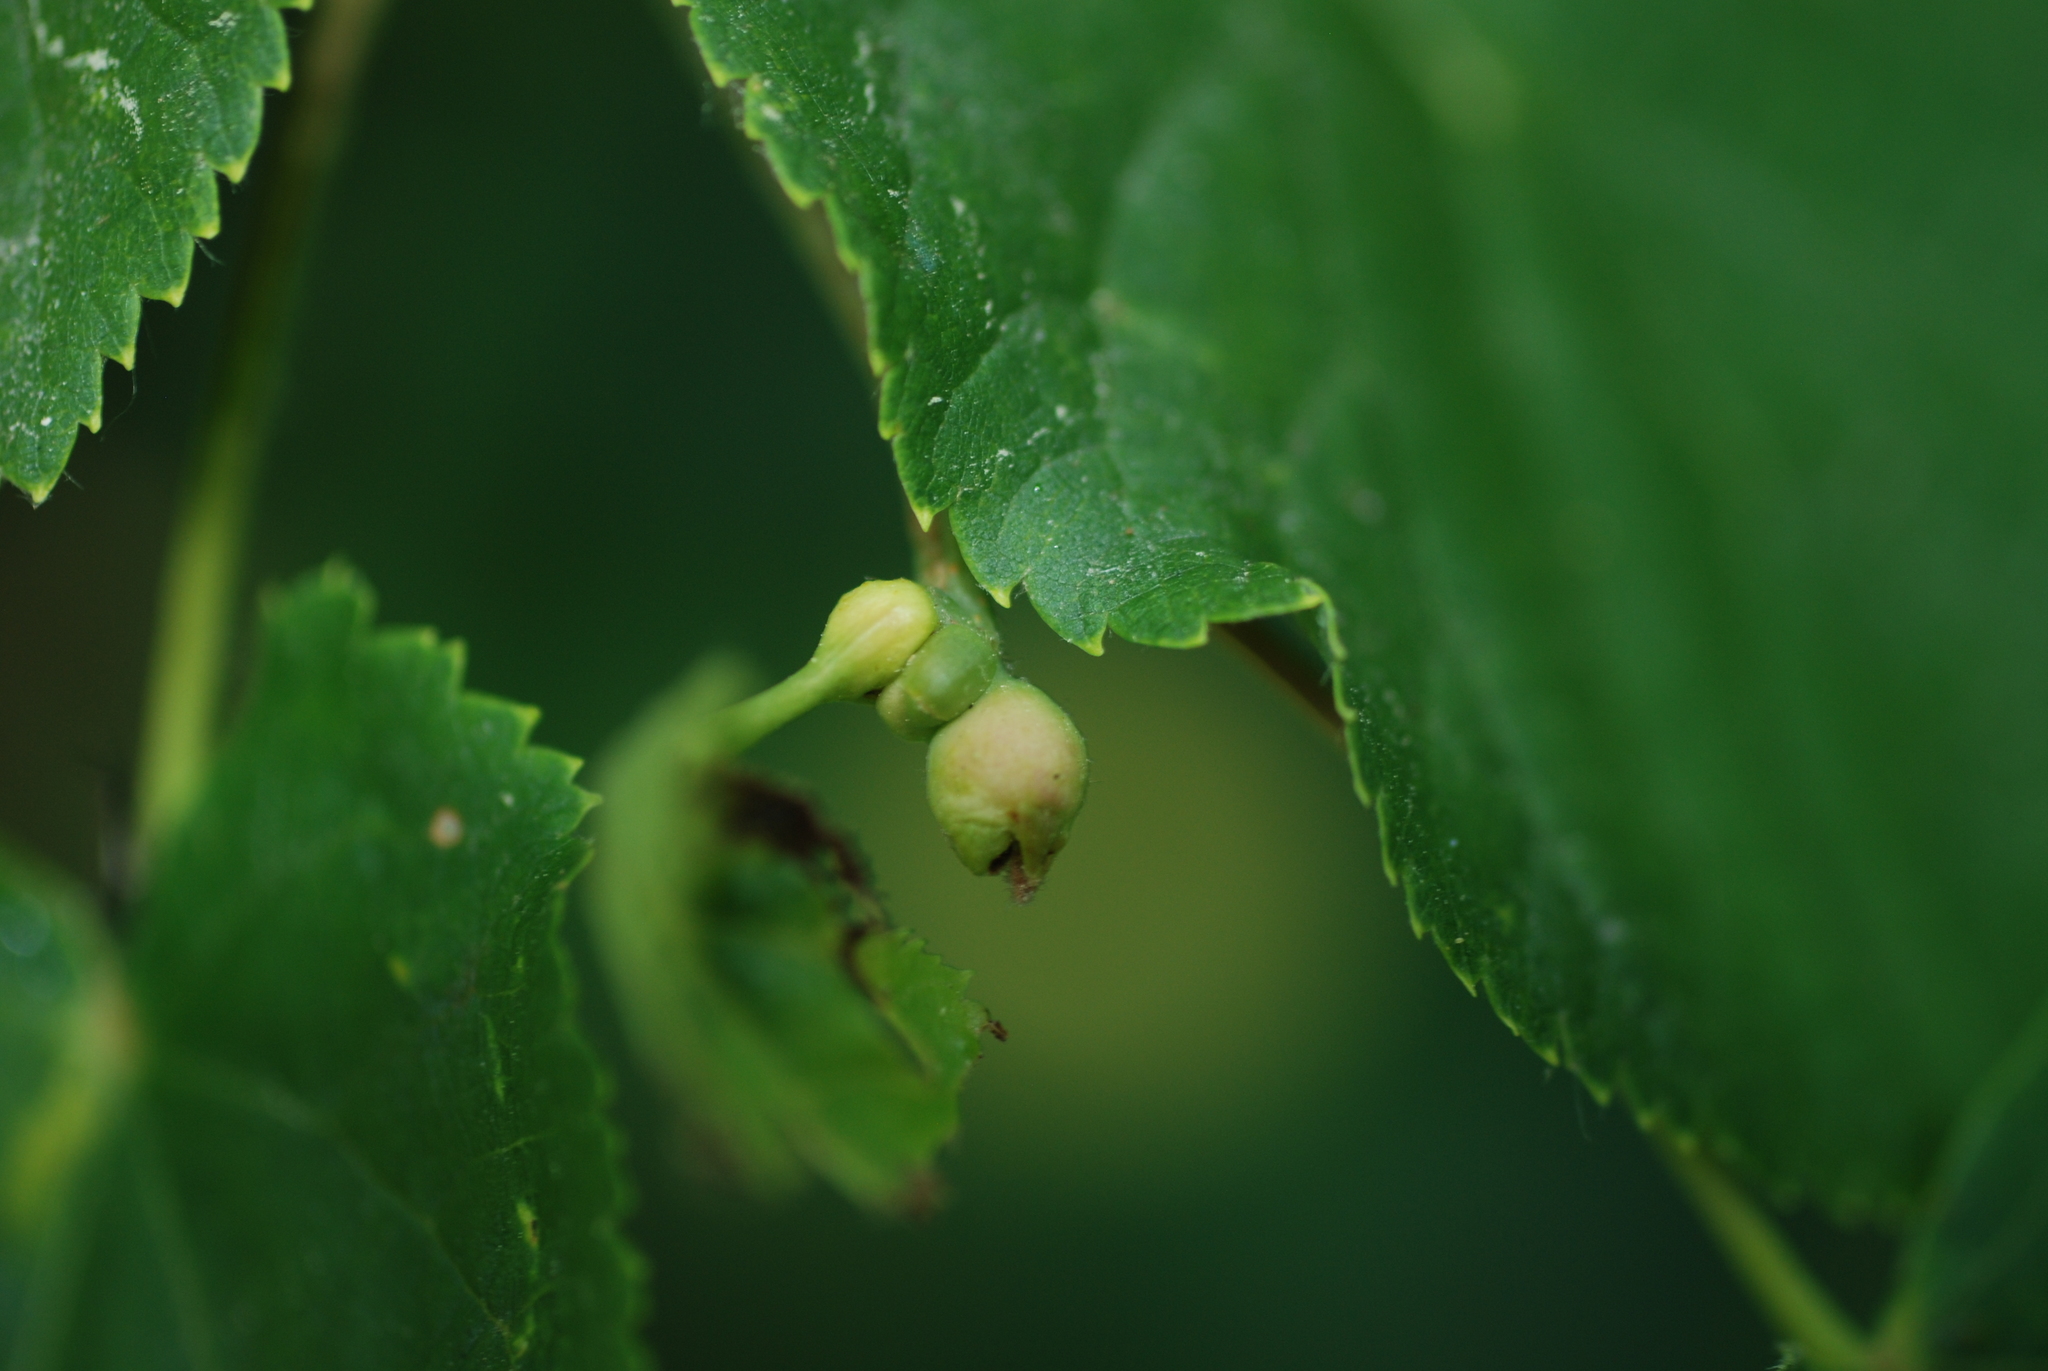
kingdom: Animalia
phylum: Arthropoda
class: Insecta
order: Diptera
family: Cecidomyiidae
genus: Contarinia
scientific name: Contarinia tiliarum
